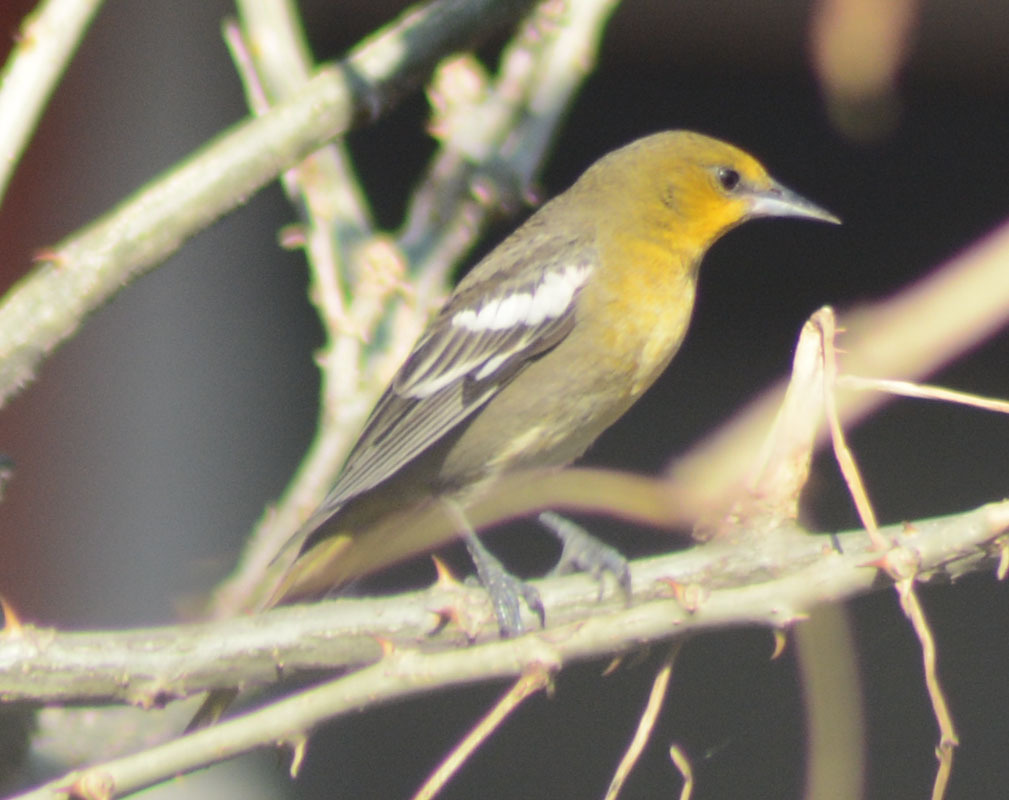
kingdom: Animalia
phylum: Chordata
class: Aves
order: Passeriformes
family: Icteridae
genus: Icterus
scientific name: Icterus abeillei
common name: Black-backed oriole
